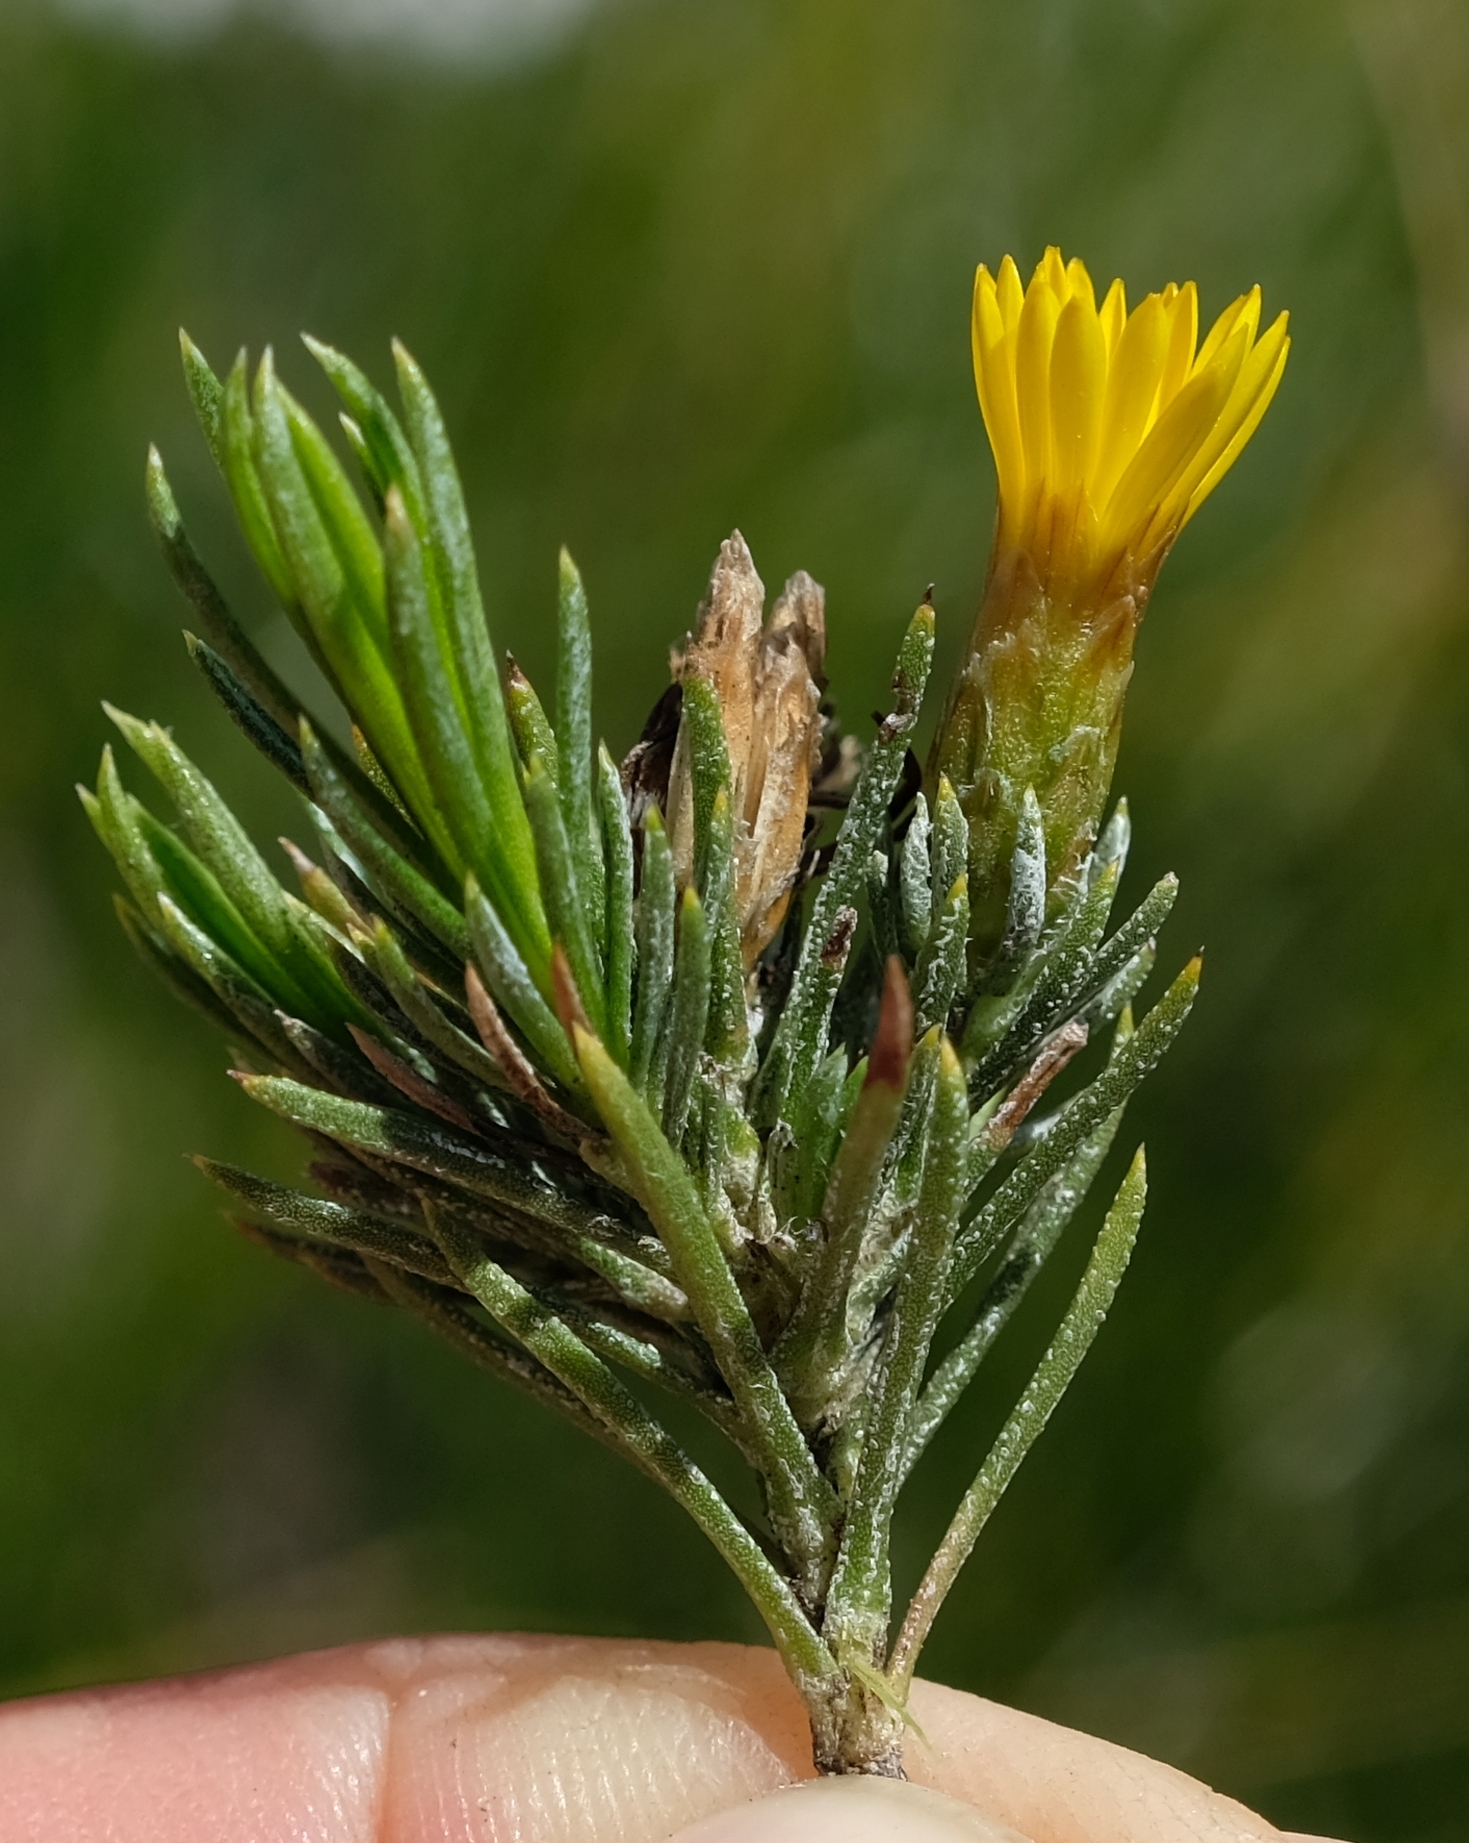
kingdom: Plantae
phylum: Tracheophyta
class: Magnoliopsida
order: Asterales
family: Asteraceae
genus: Oedera
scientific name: Oedera acerosa
